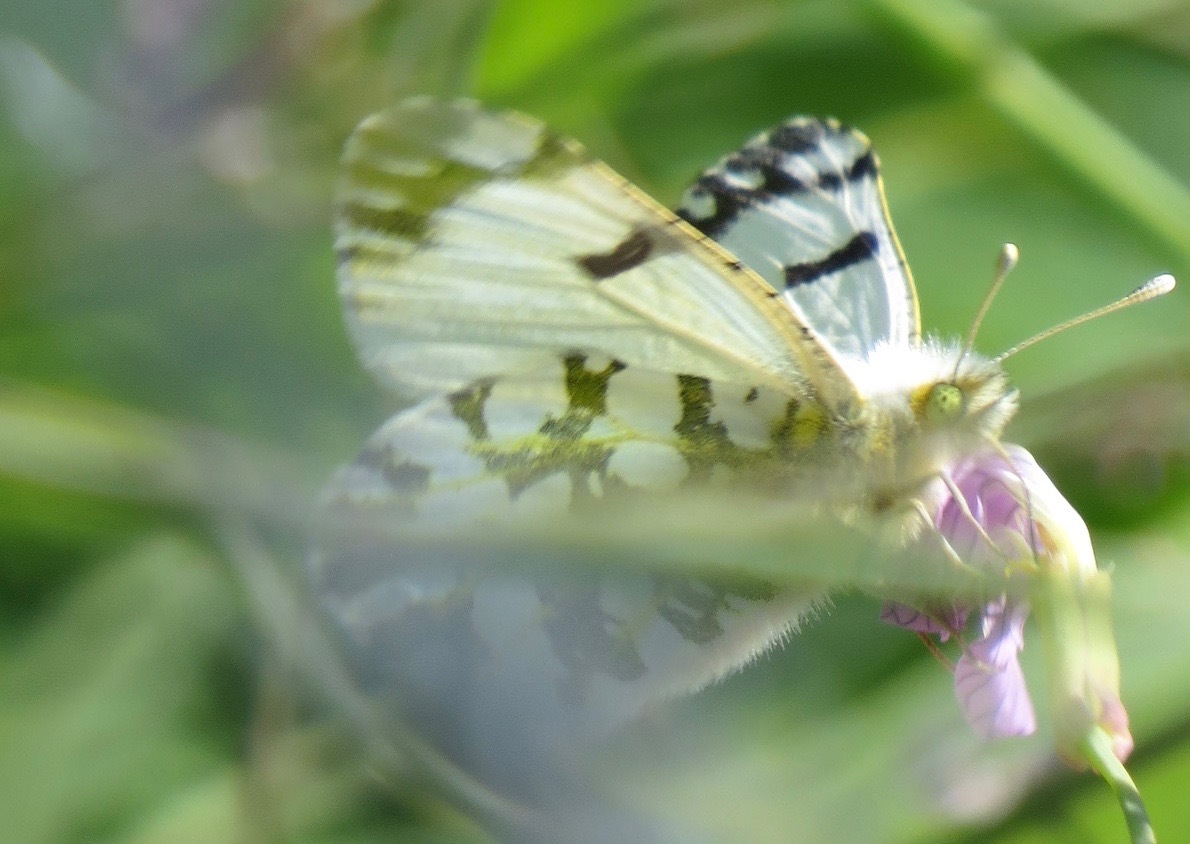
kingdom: Animalia
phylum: Arthropoda
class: Insecta
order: Lepidoptera
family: Pieridae
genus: Euchloe
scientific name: Euchloe ausonides
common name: Creamy marblewing
